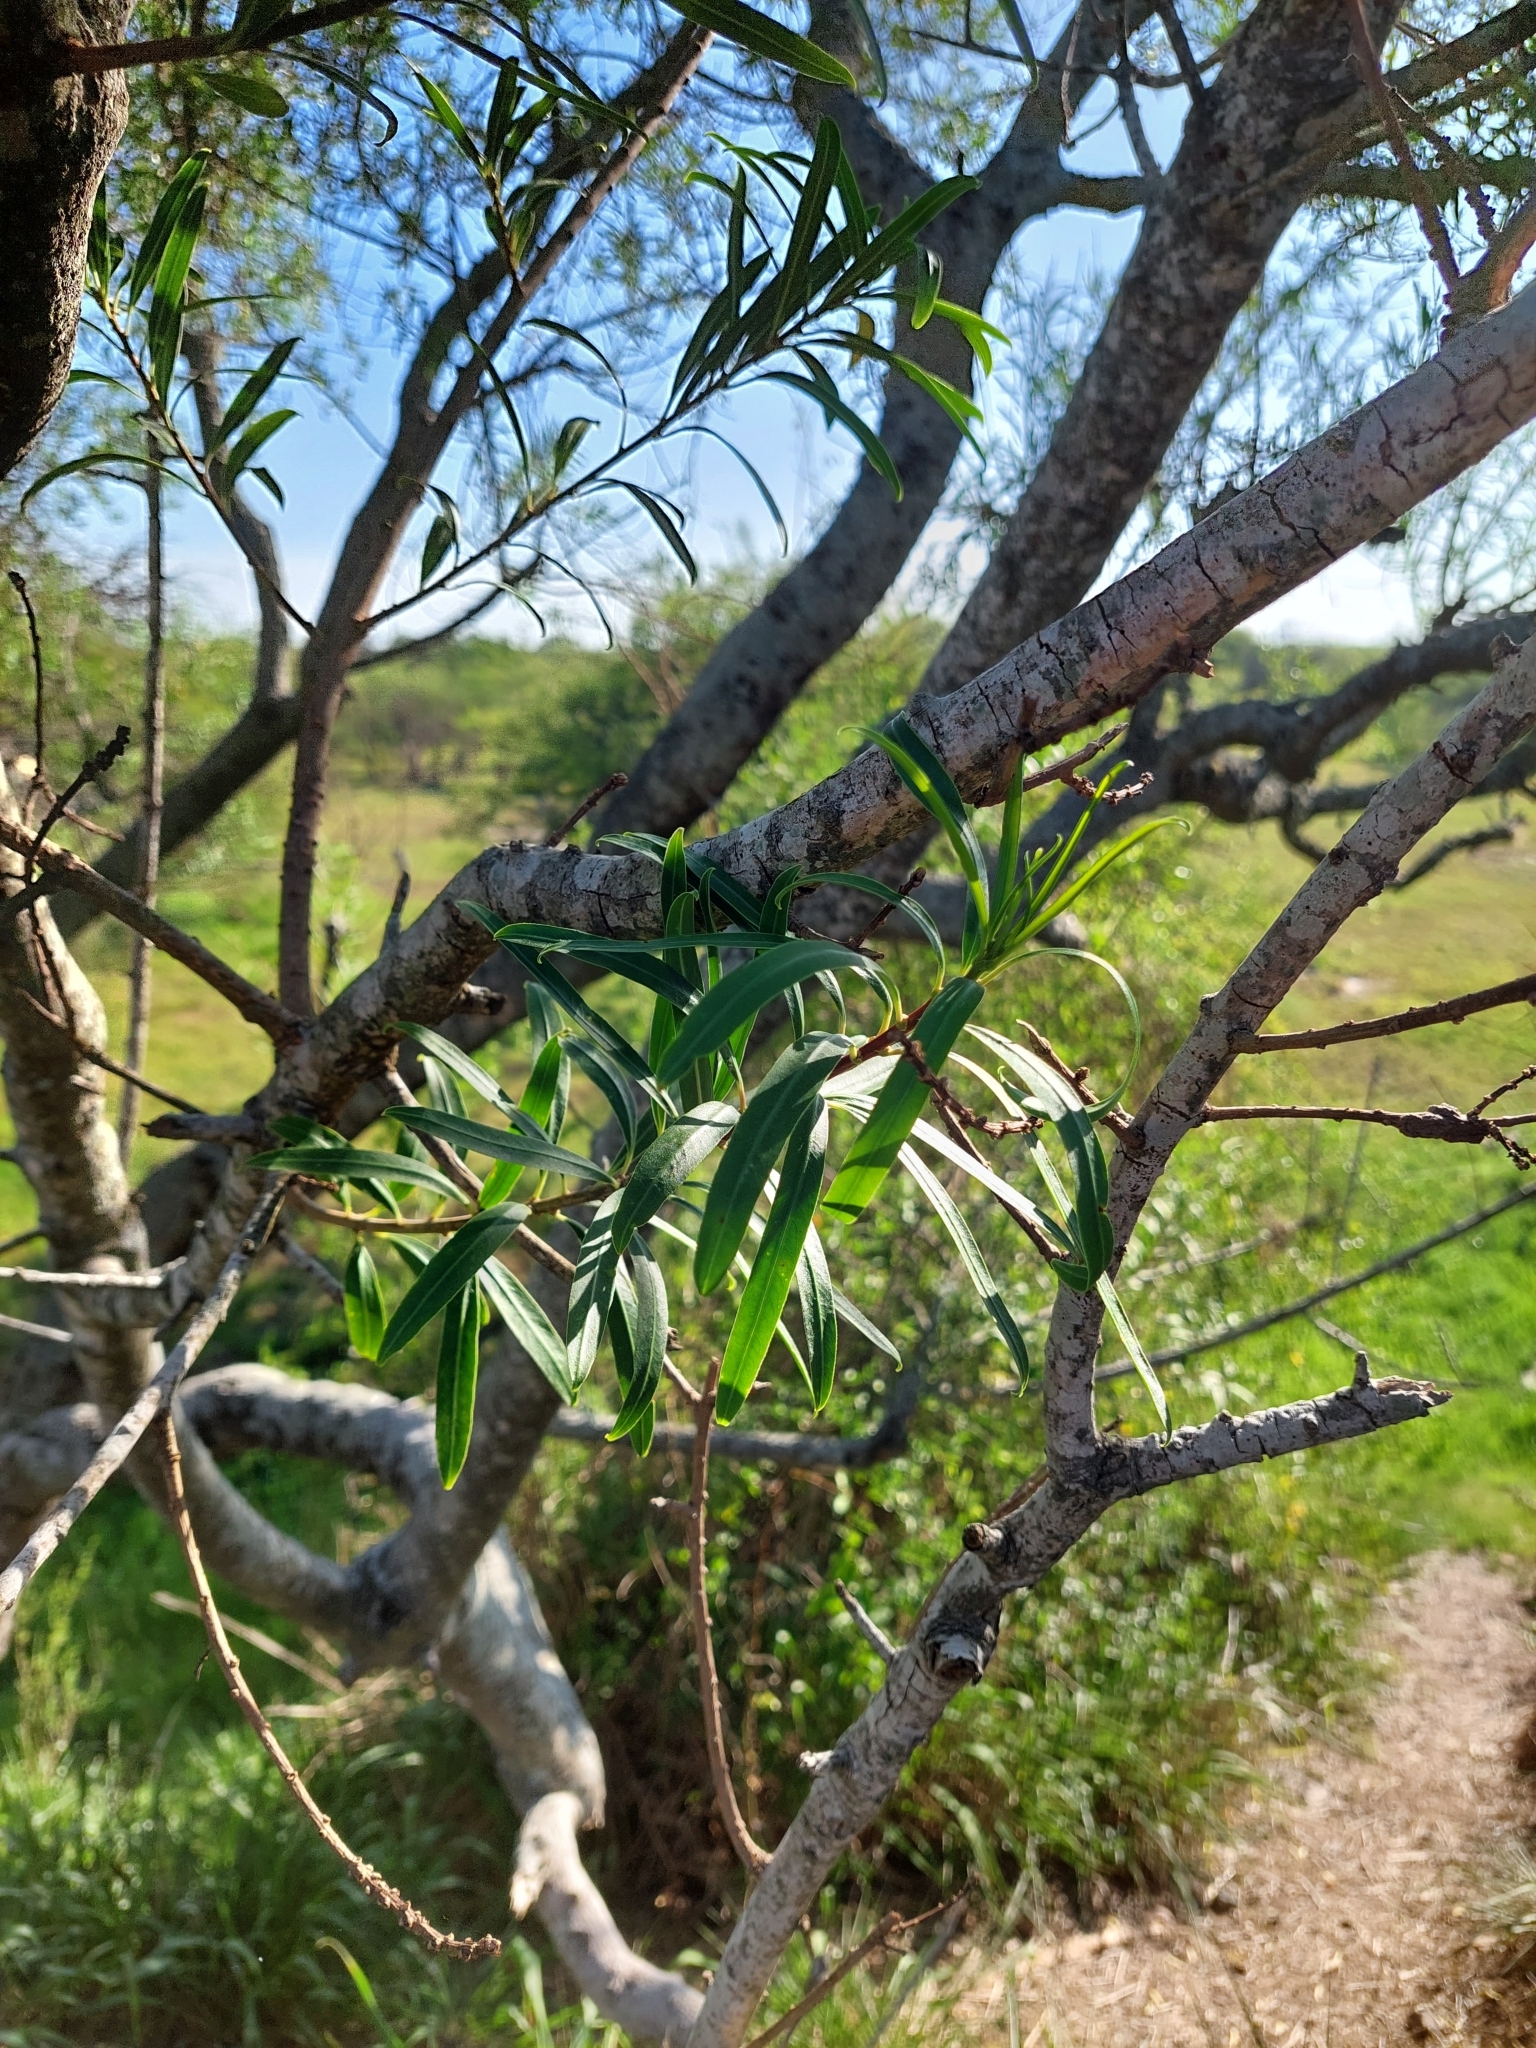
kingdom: Plantae
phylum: Tracheophyta
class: Magnoliopsida
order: Malpighiales
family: Euphorbiaceae
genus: Sapium
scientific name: Sapium haematospermum
